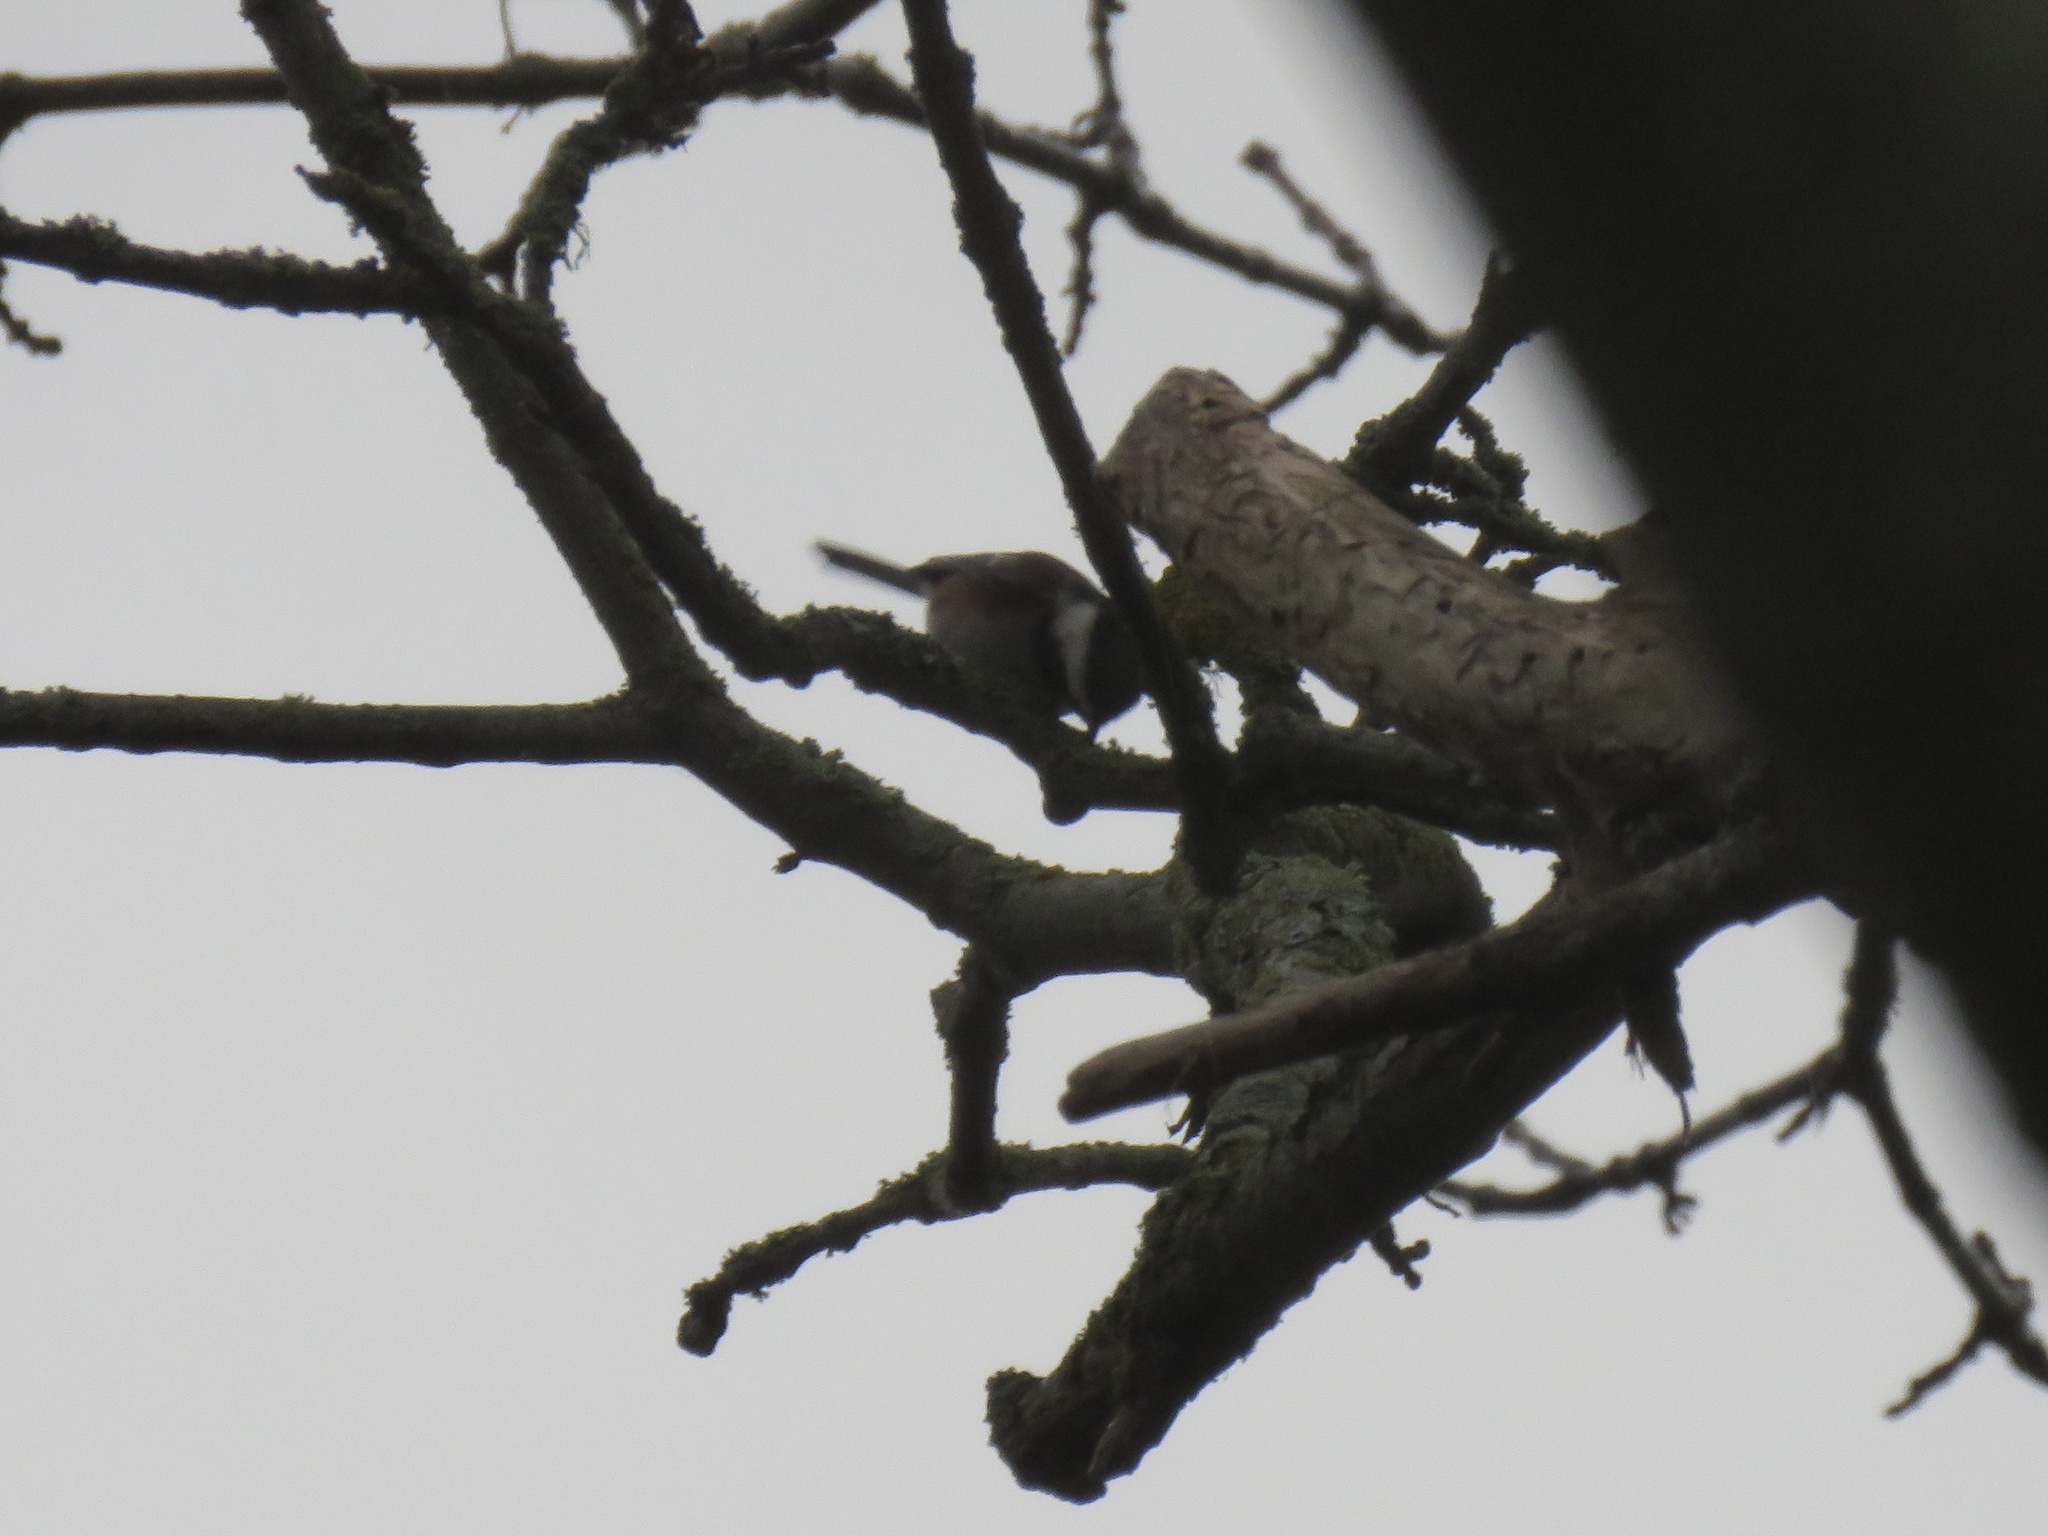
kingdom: Animalia
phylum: Chordata
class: Aves
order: Passeriformes
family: Paridae
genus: Poecile
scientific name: Poecile rufescens
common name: Chestnut-backed chickadee
